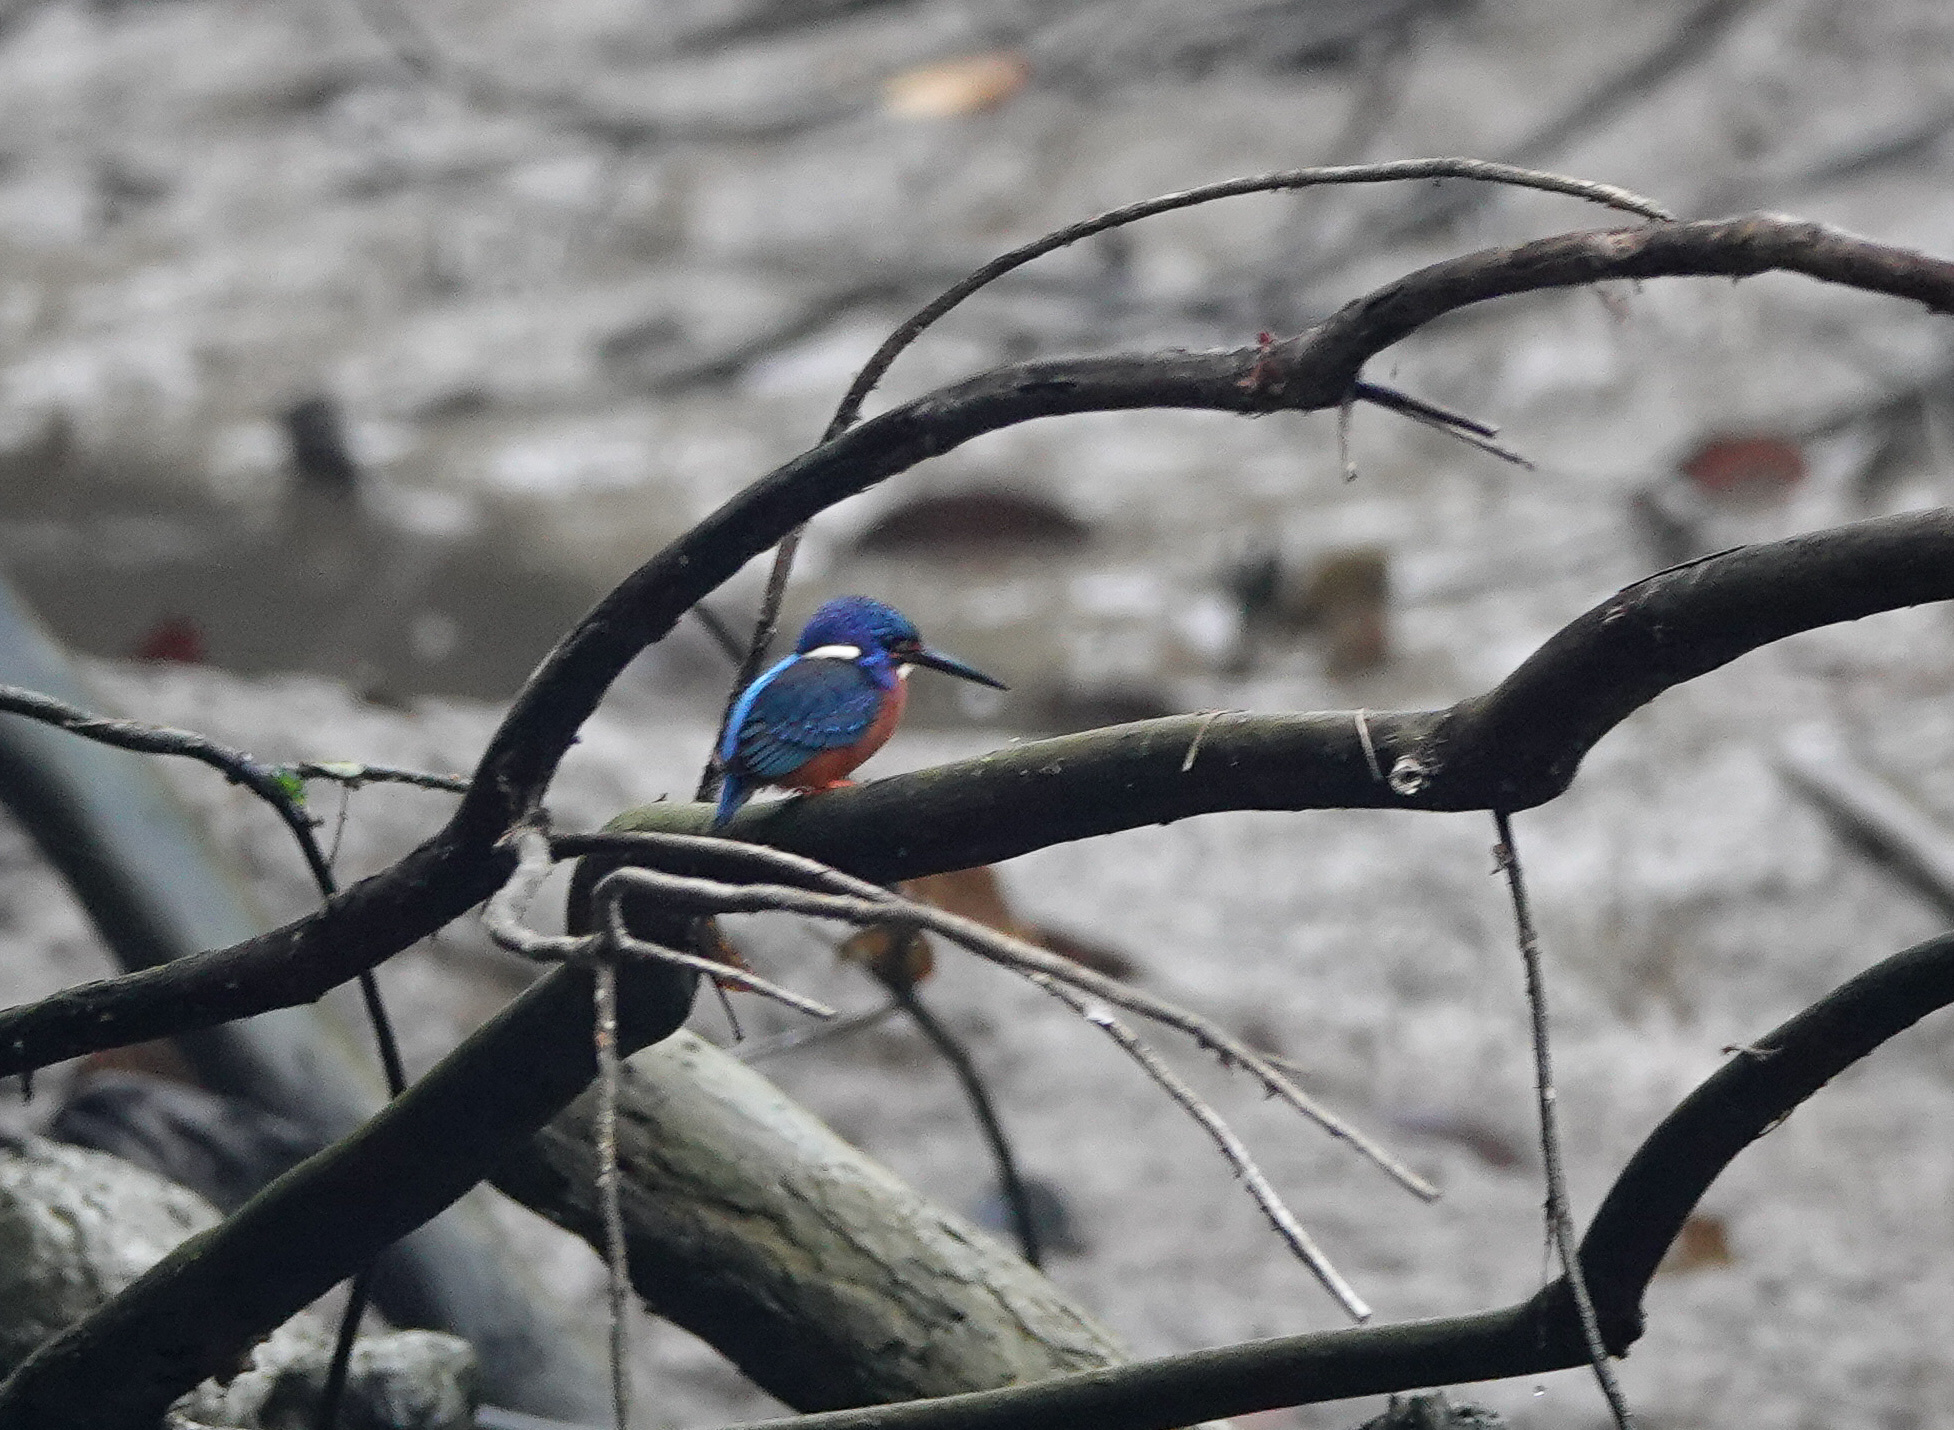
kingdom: Animalia
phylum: Chordata
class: Aves
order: Coraciiformes
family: Alcedinidae
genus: Alcedo
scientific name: Alcedo meninting
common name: Blue-eared kingfisher
